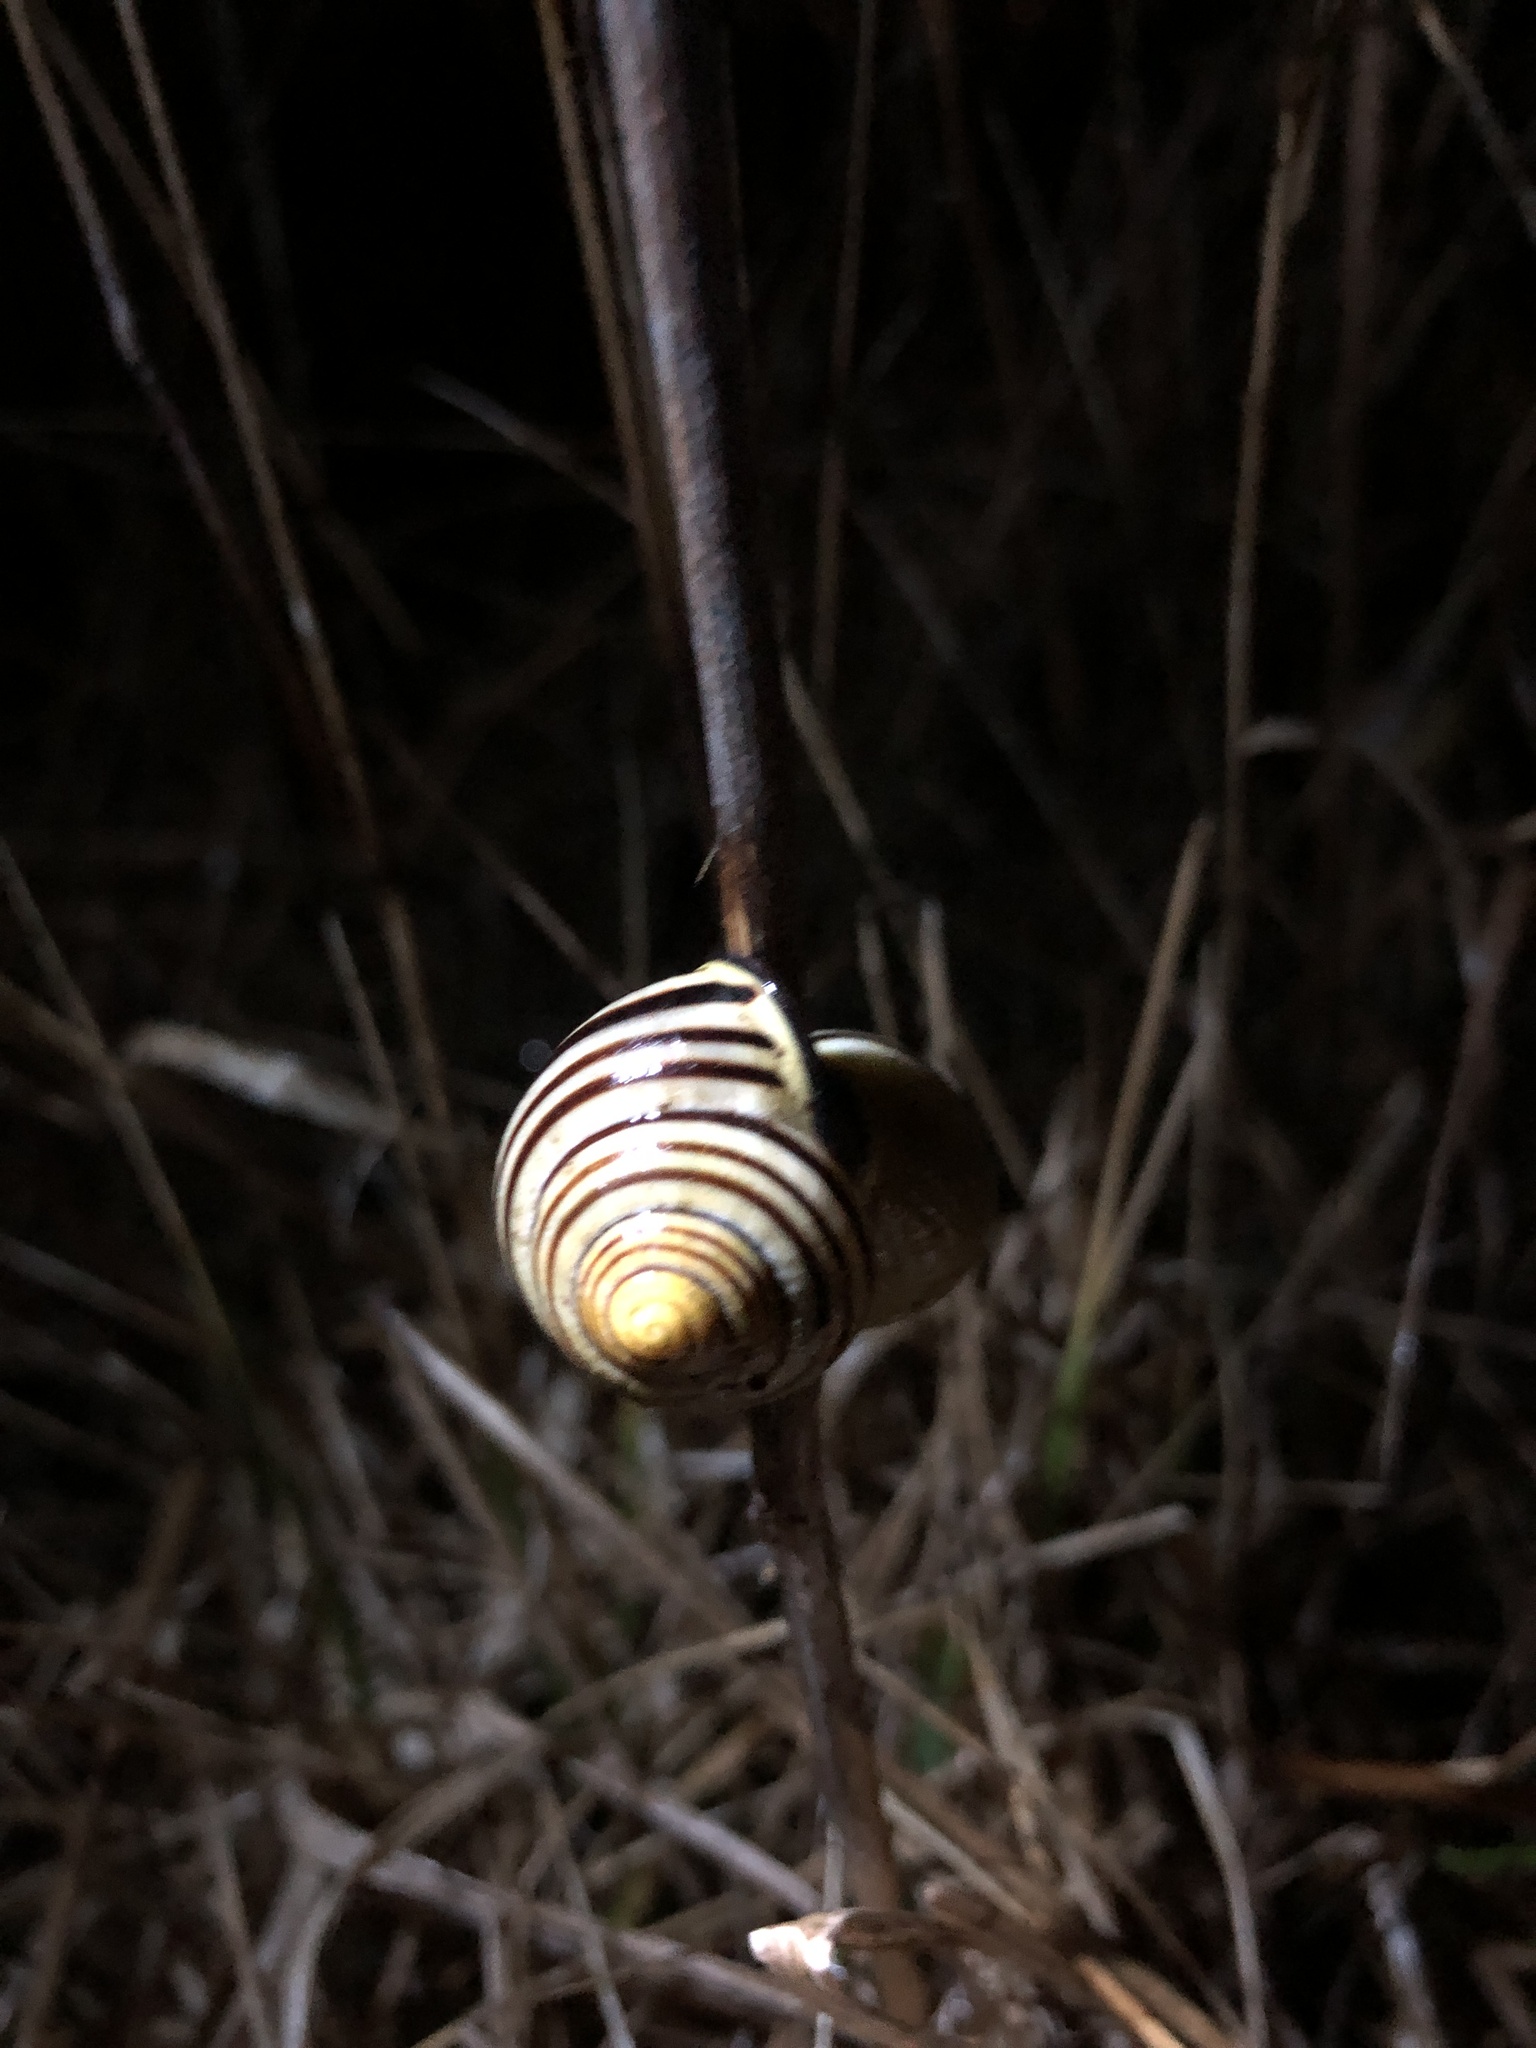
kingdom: Animalia
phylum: Mollusca
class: Gastropoda
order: Stylommatophora
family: Helicidae
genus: Cepaea
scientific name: Cepaea nemoralis
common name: Grovesnail
